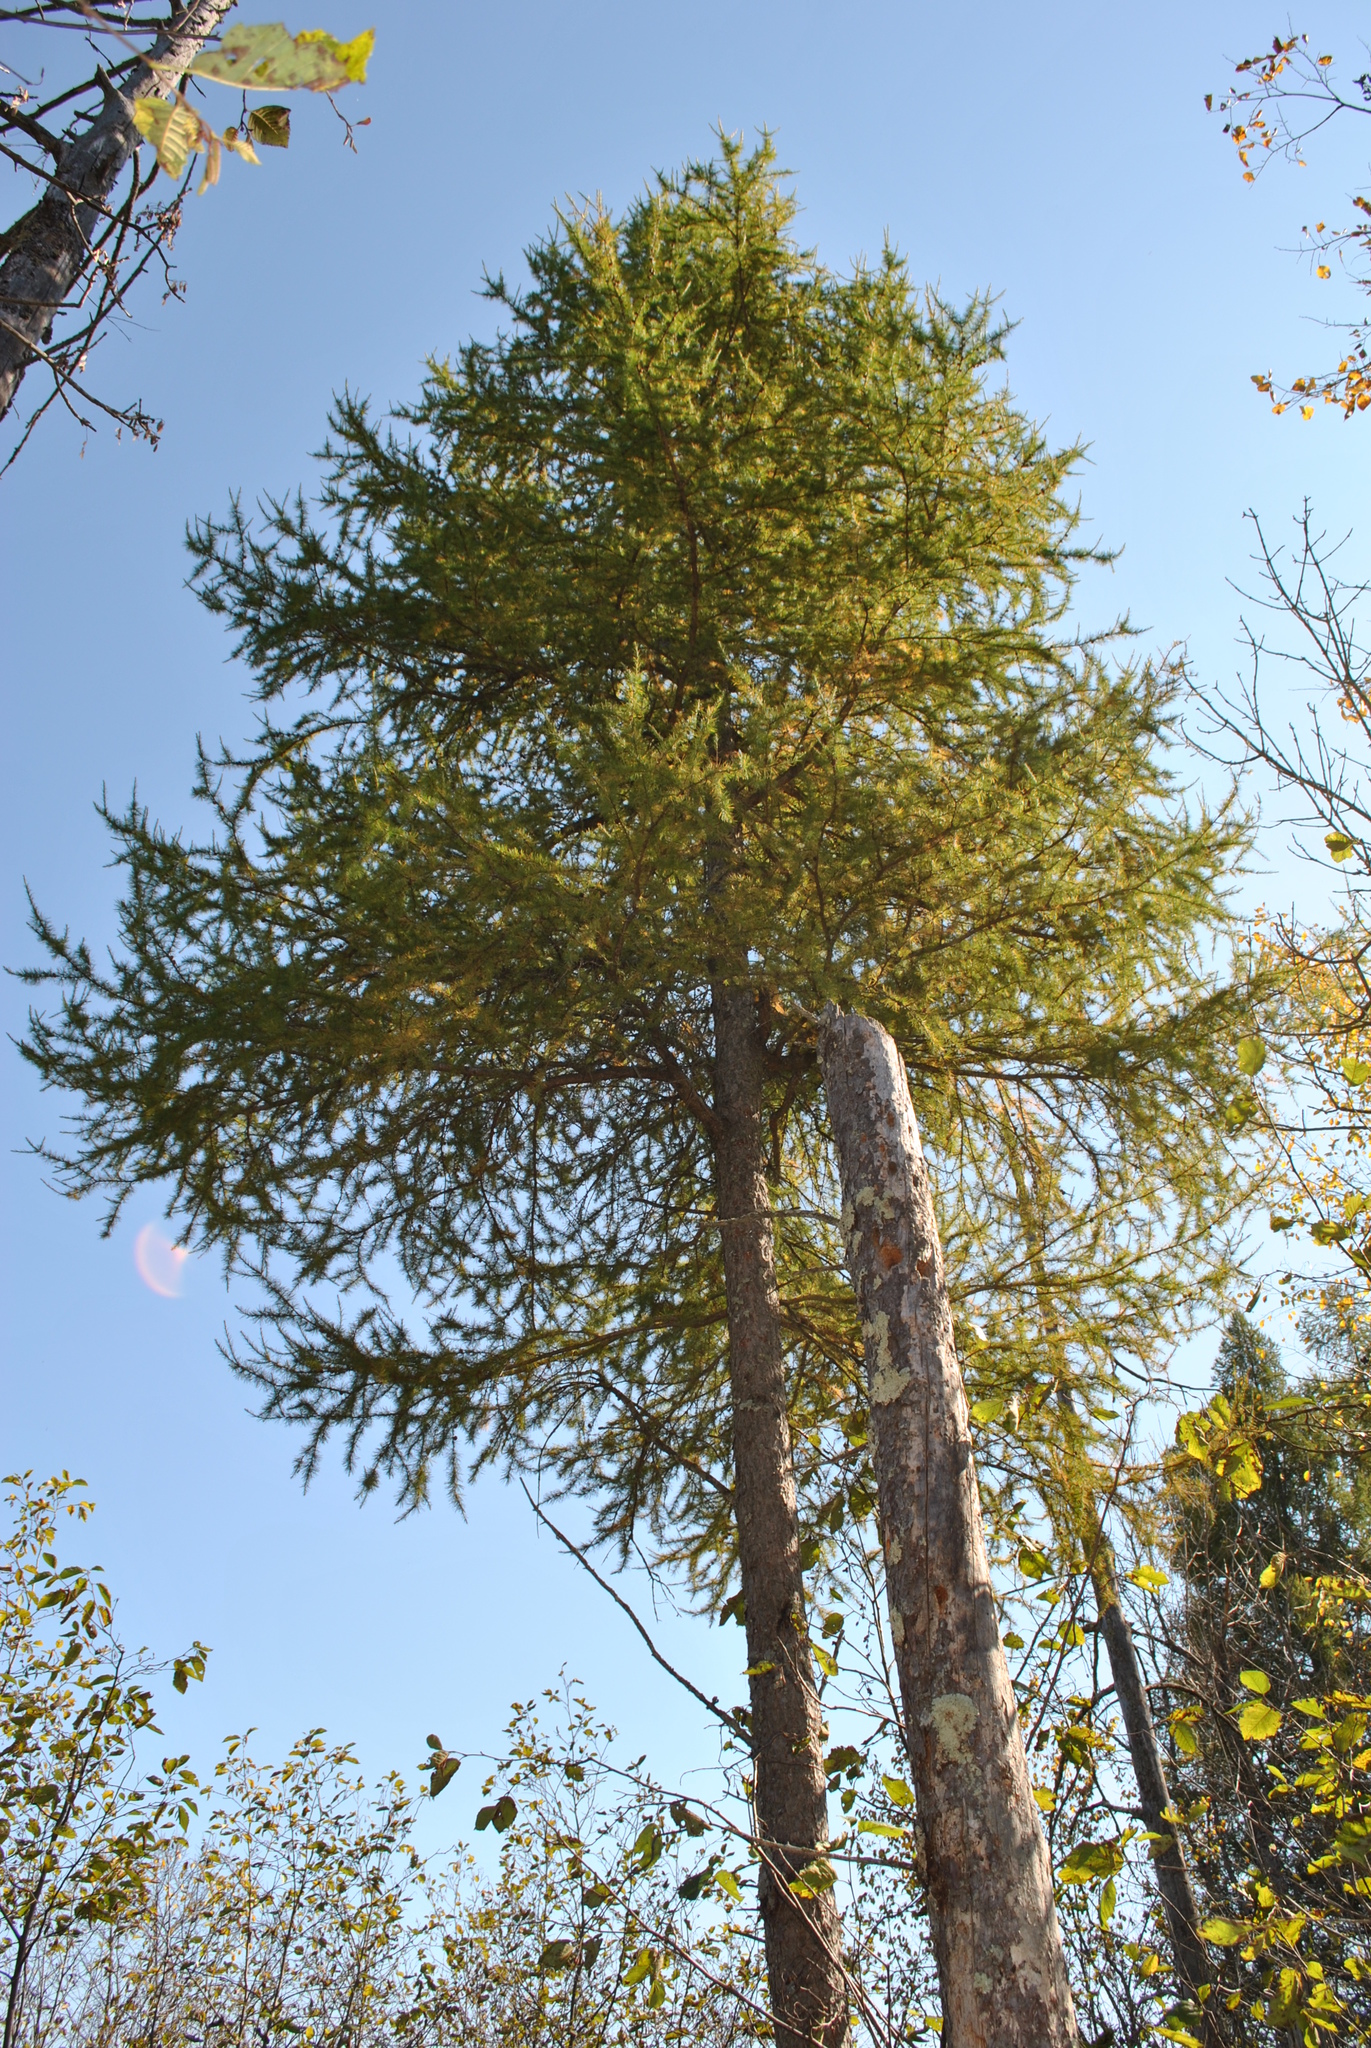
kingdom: Plantae
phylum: Tracheophyta
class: Pinopsida
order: Pinales
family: Pinaceae
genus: Larix
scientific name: Larix laricina
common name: American larch
